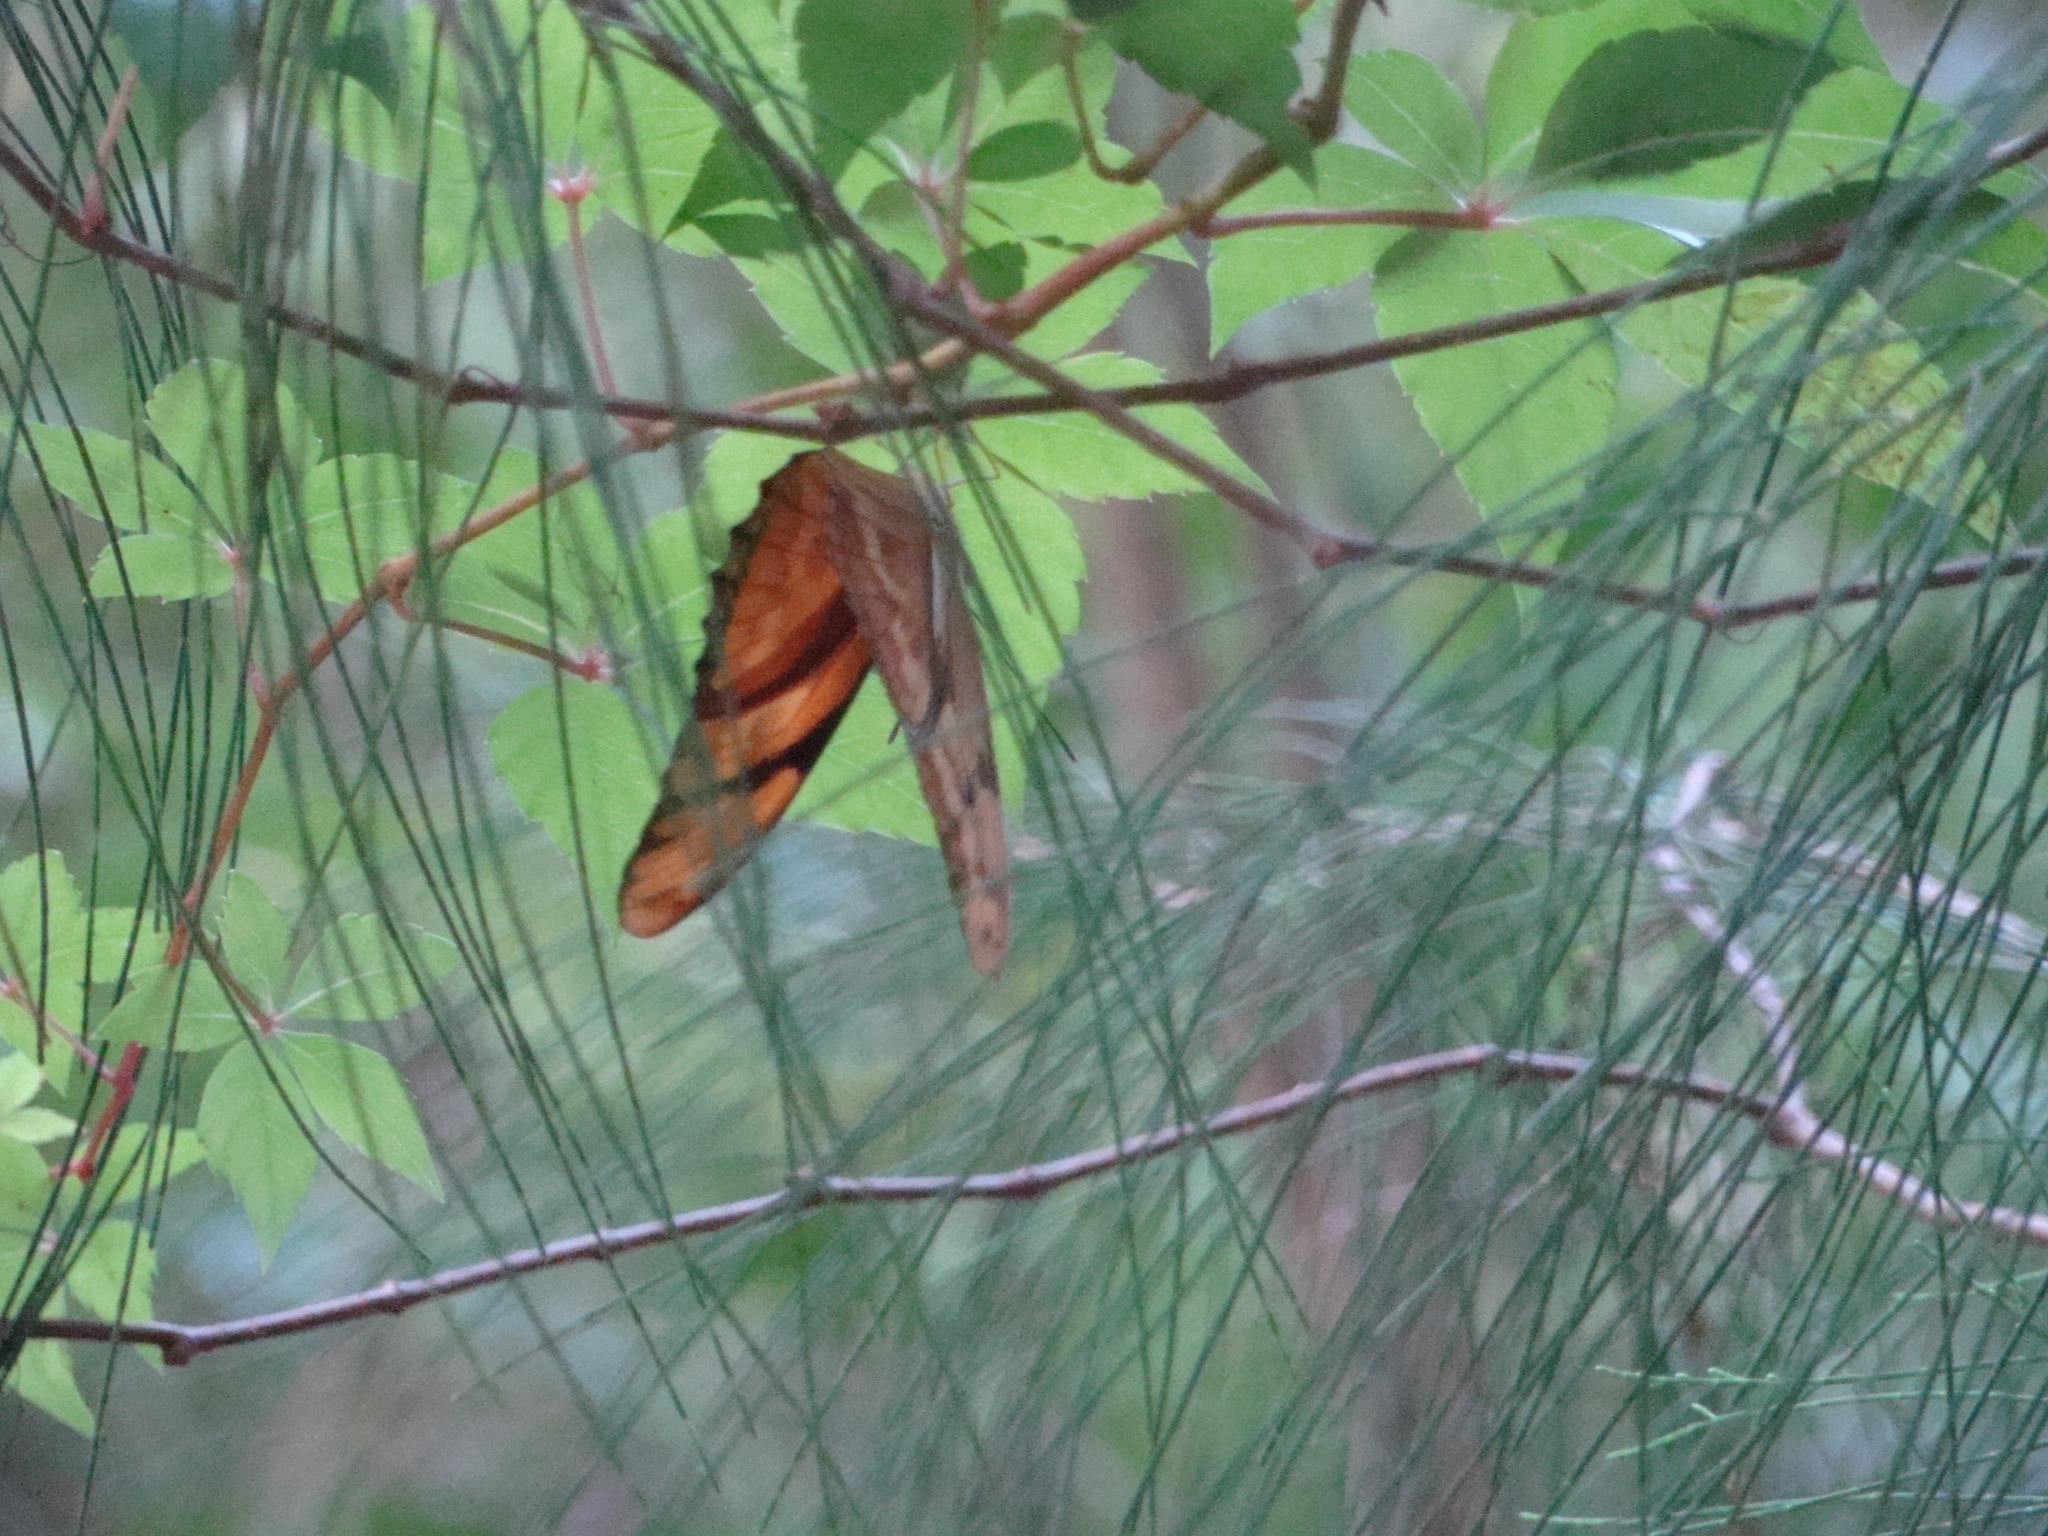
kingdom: Animalia
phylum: Arthropoda
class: Insecta
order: Lepidoptera
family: Nymphalidae
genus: Dryas
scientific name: Dryas iulia
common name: Flambeau
